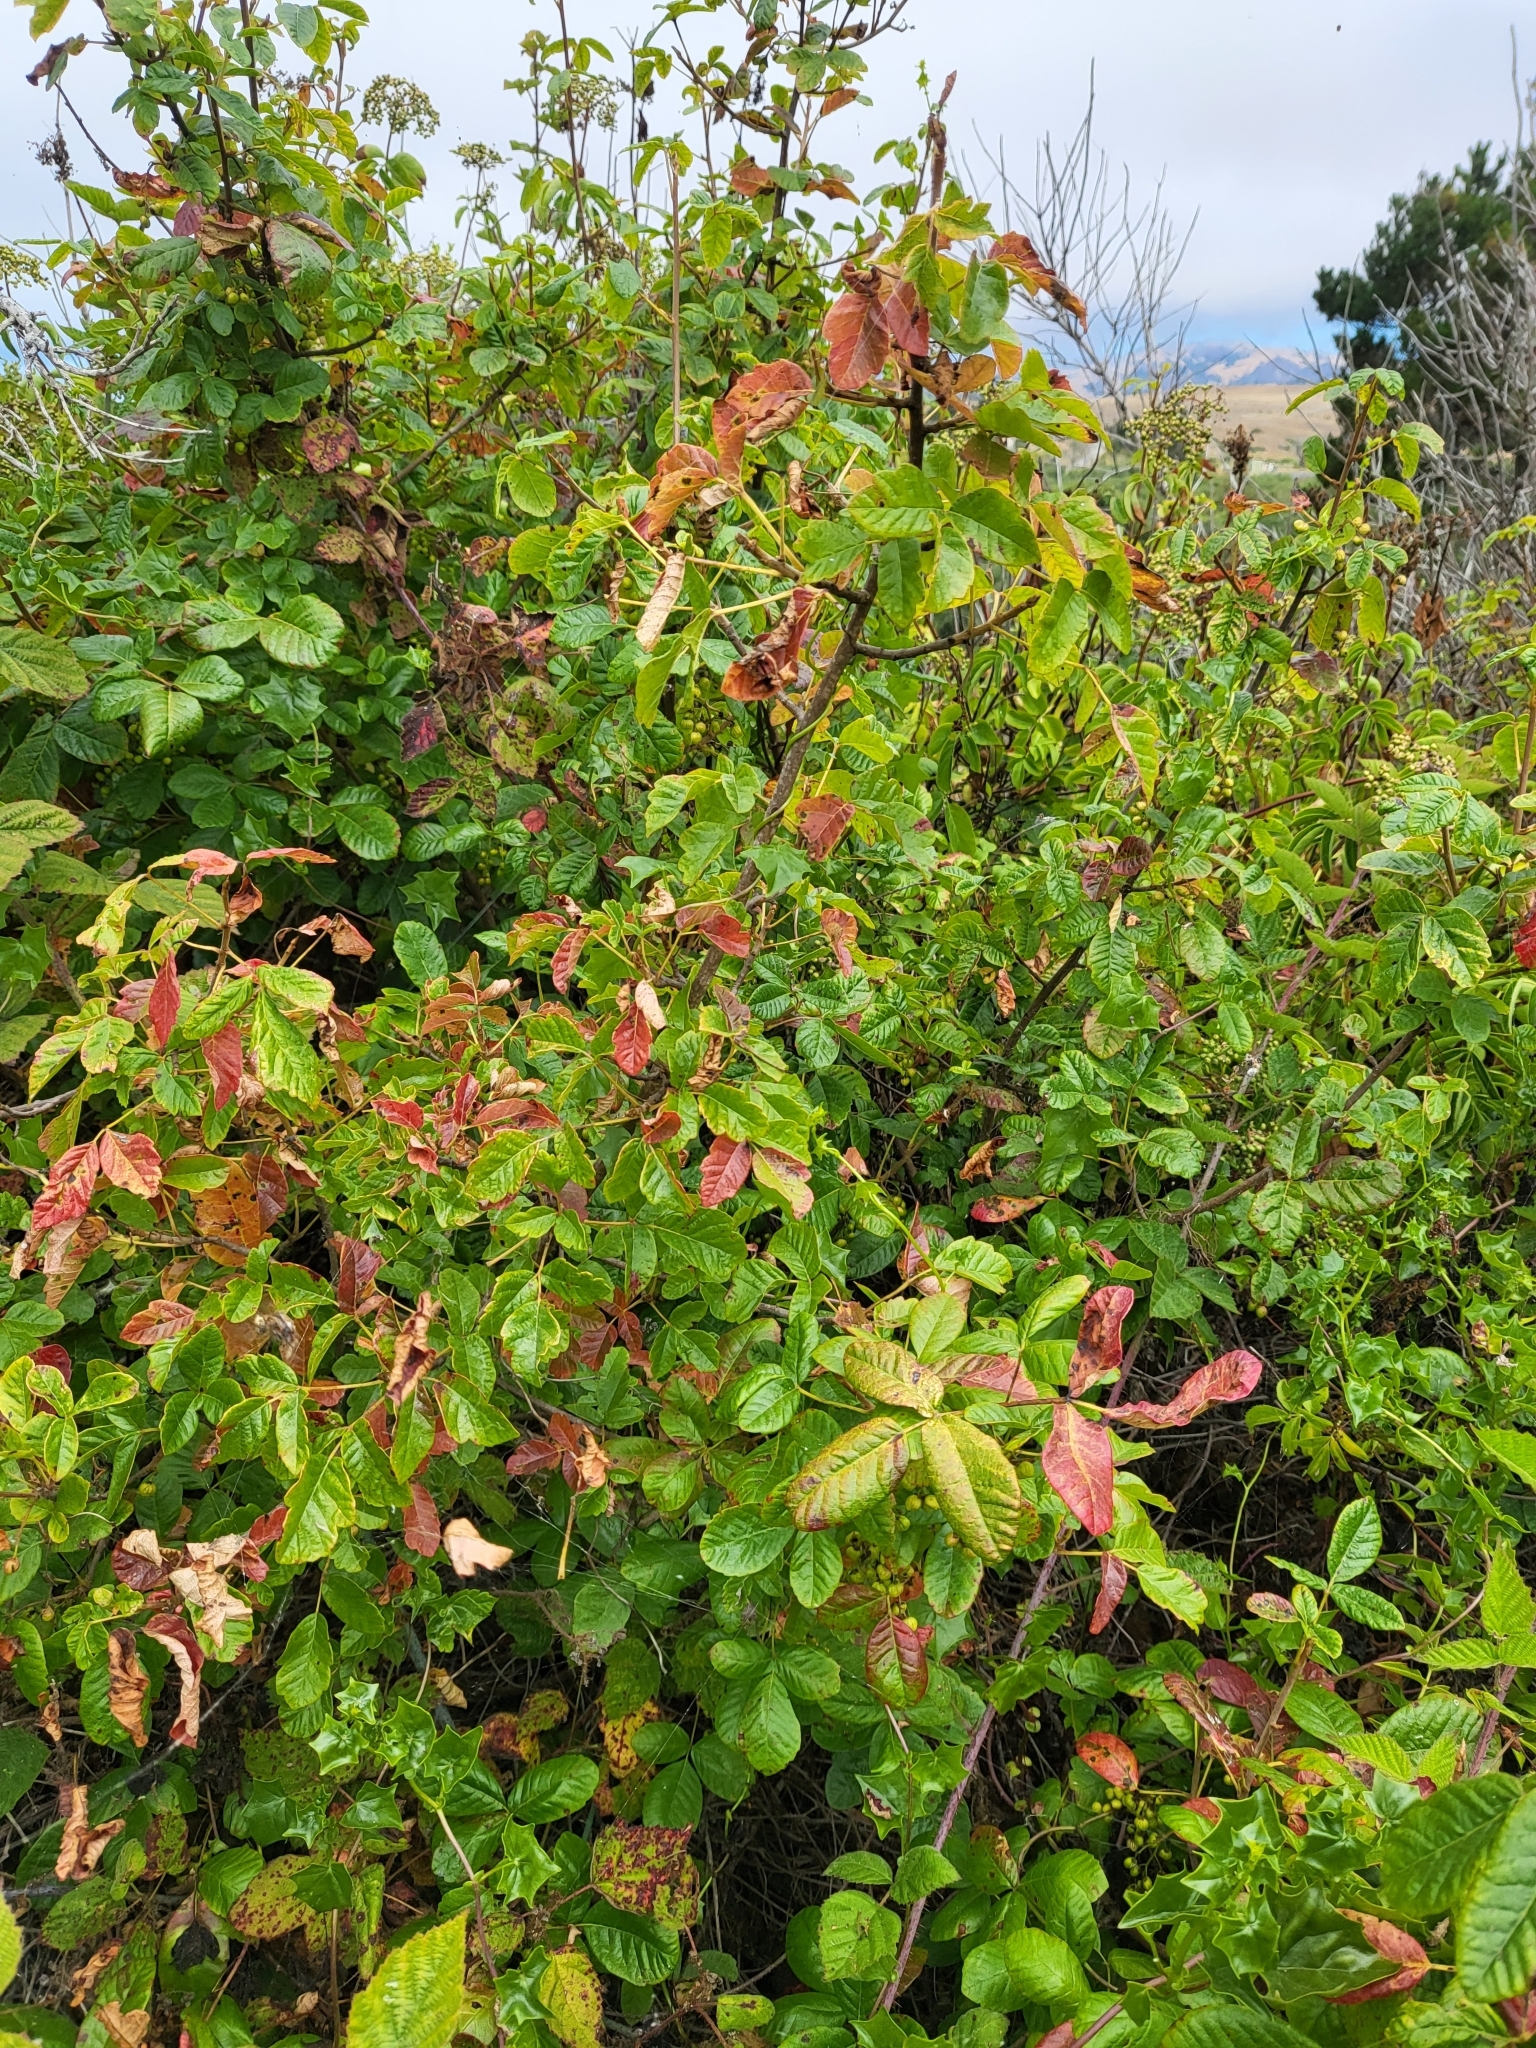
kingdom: Plantae
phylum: Tracheophyta
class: Magnoliopsida
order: Sapindales
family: Anacardiaceae
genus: Toxicodendron
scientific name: Toxicodendron diversilobum
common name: Pacific poison-oak
